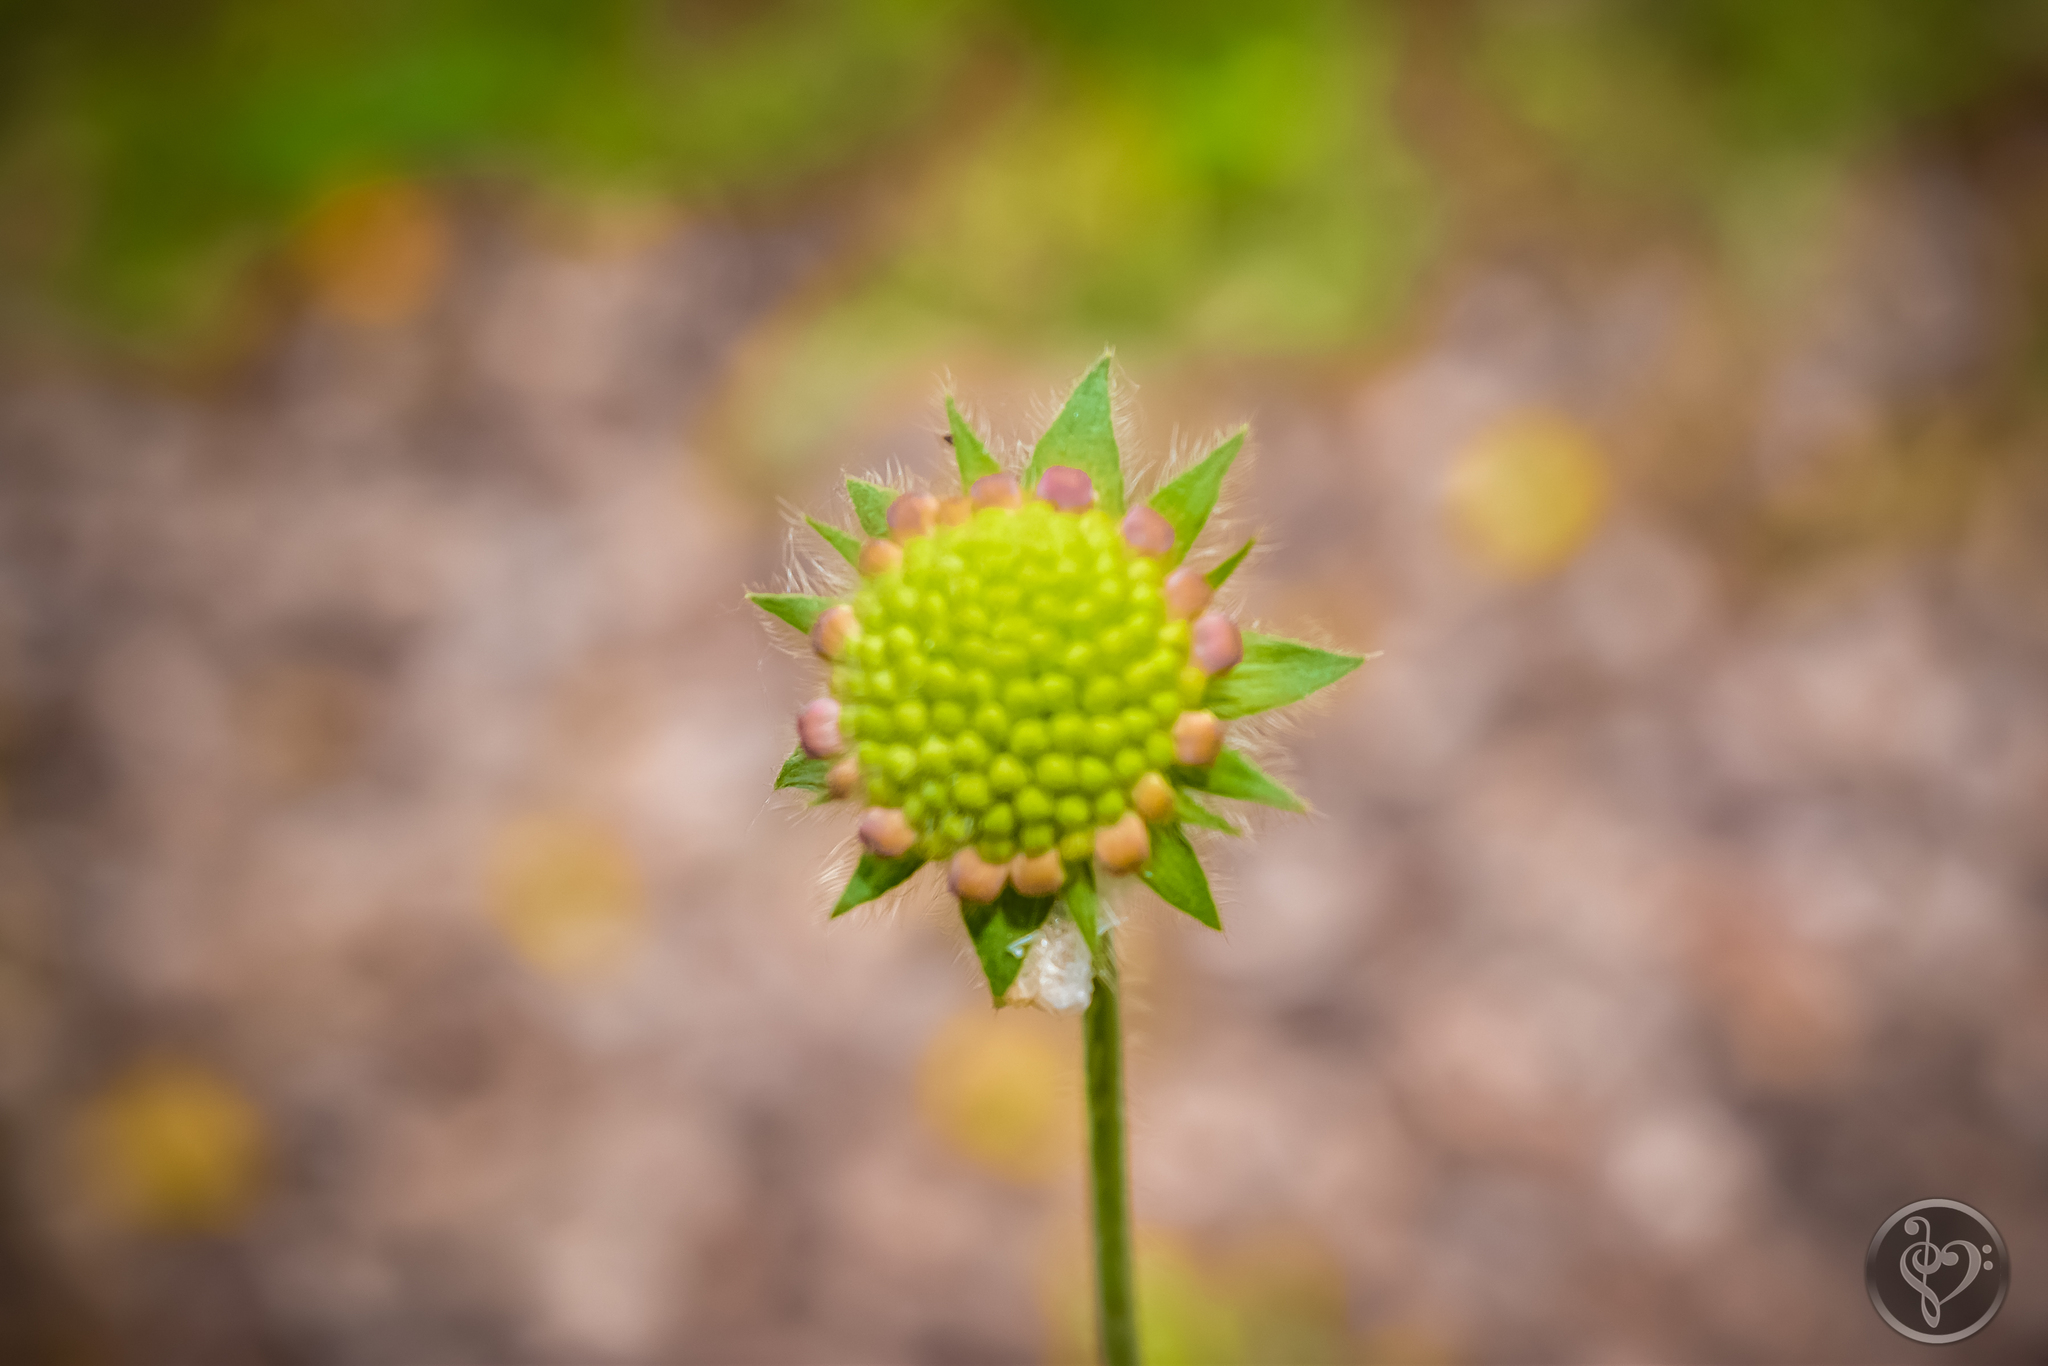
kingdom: Plantae
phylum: Tracheophyta
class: Magnoliopsida
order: Dipsacales
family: Caprifoliaceae
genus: Knautia
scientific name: Knautia arvensis
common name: Field scabiosa
